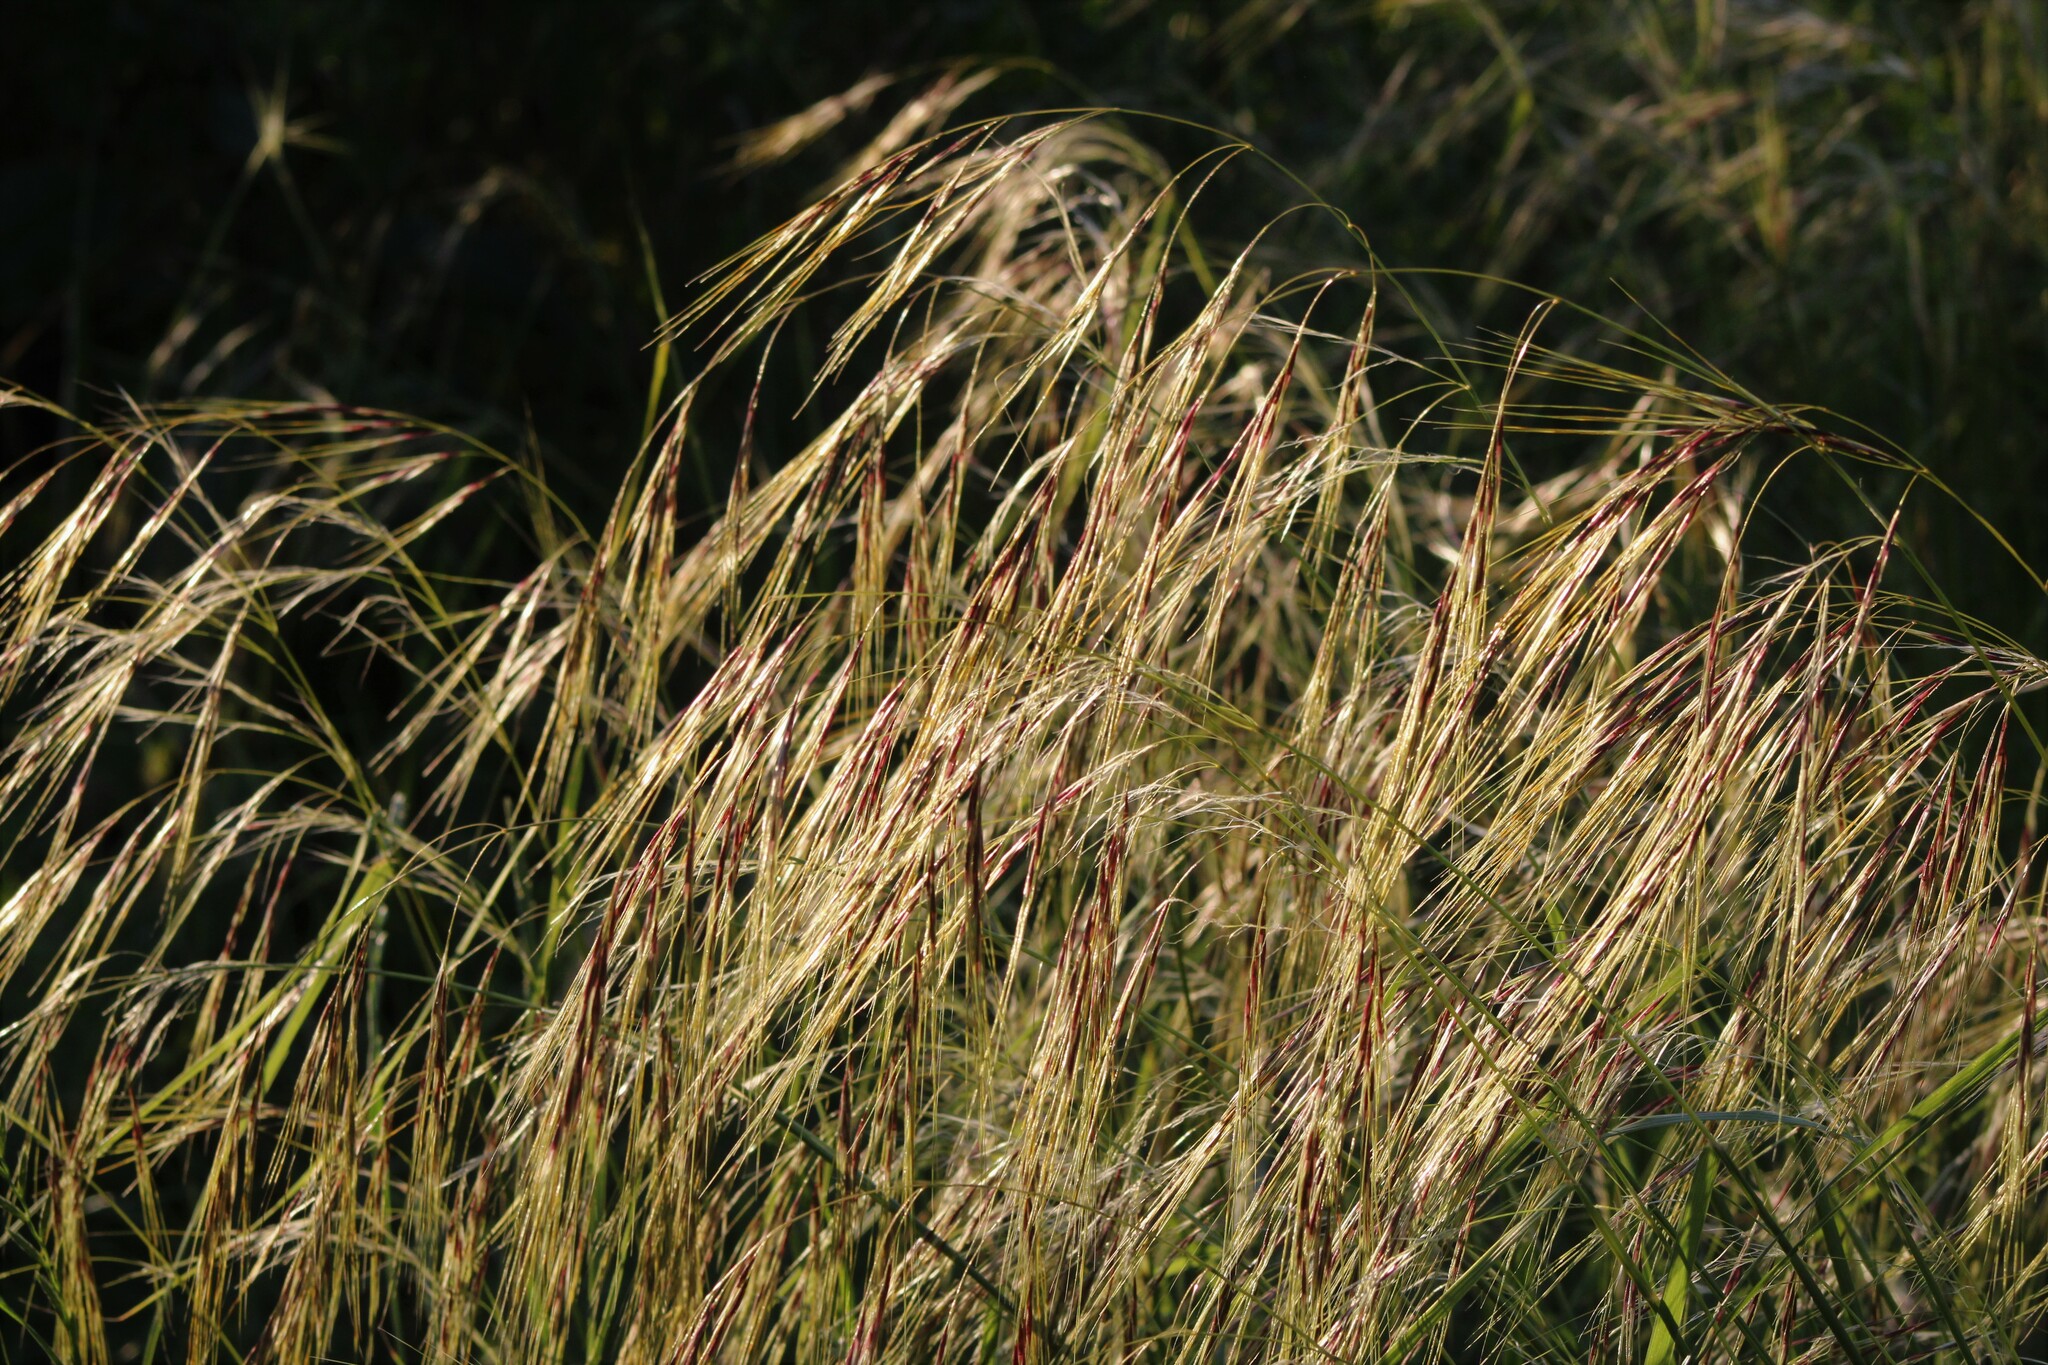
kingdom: Plantae
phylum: Tracheophyta
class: Liliopsida
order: Poales
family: Poaceae
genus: Nassella
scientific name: Nassella neesiana
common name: American needle-grass
